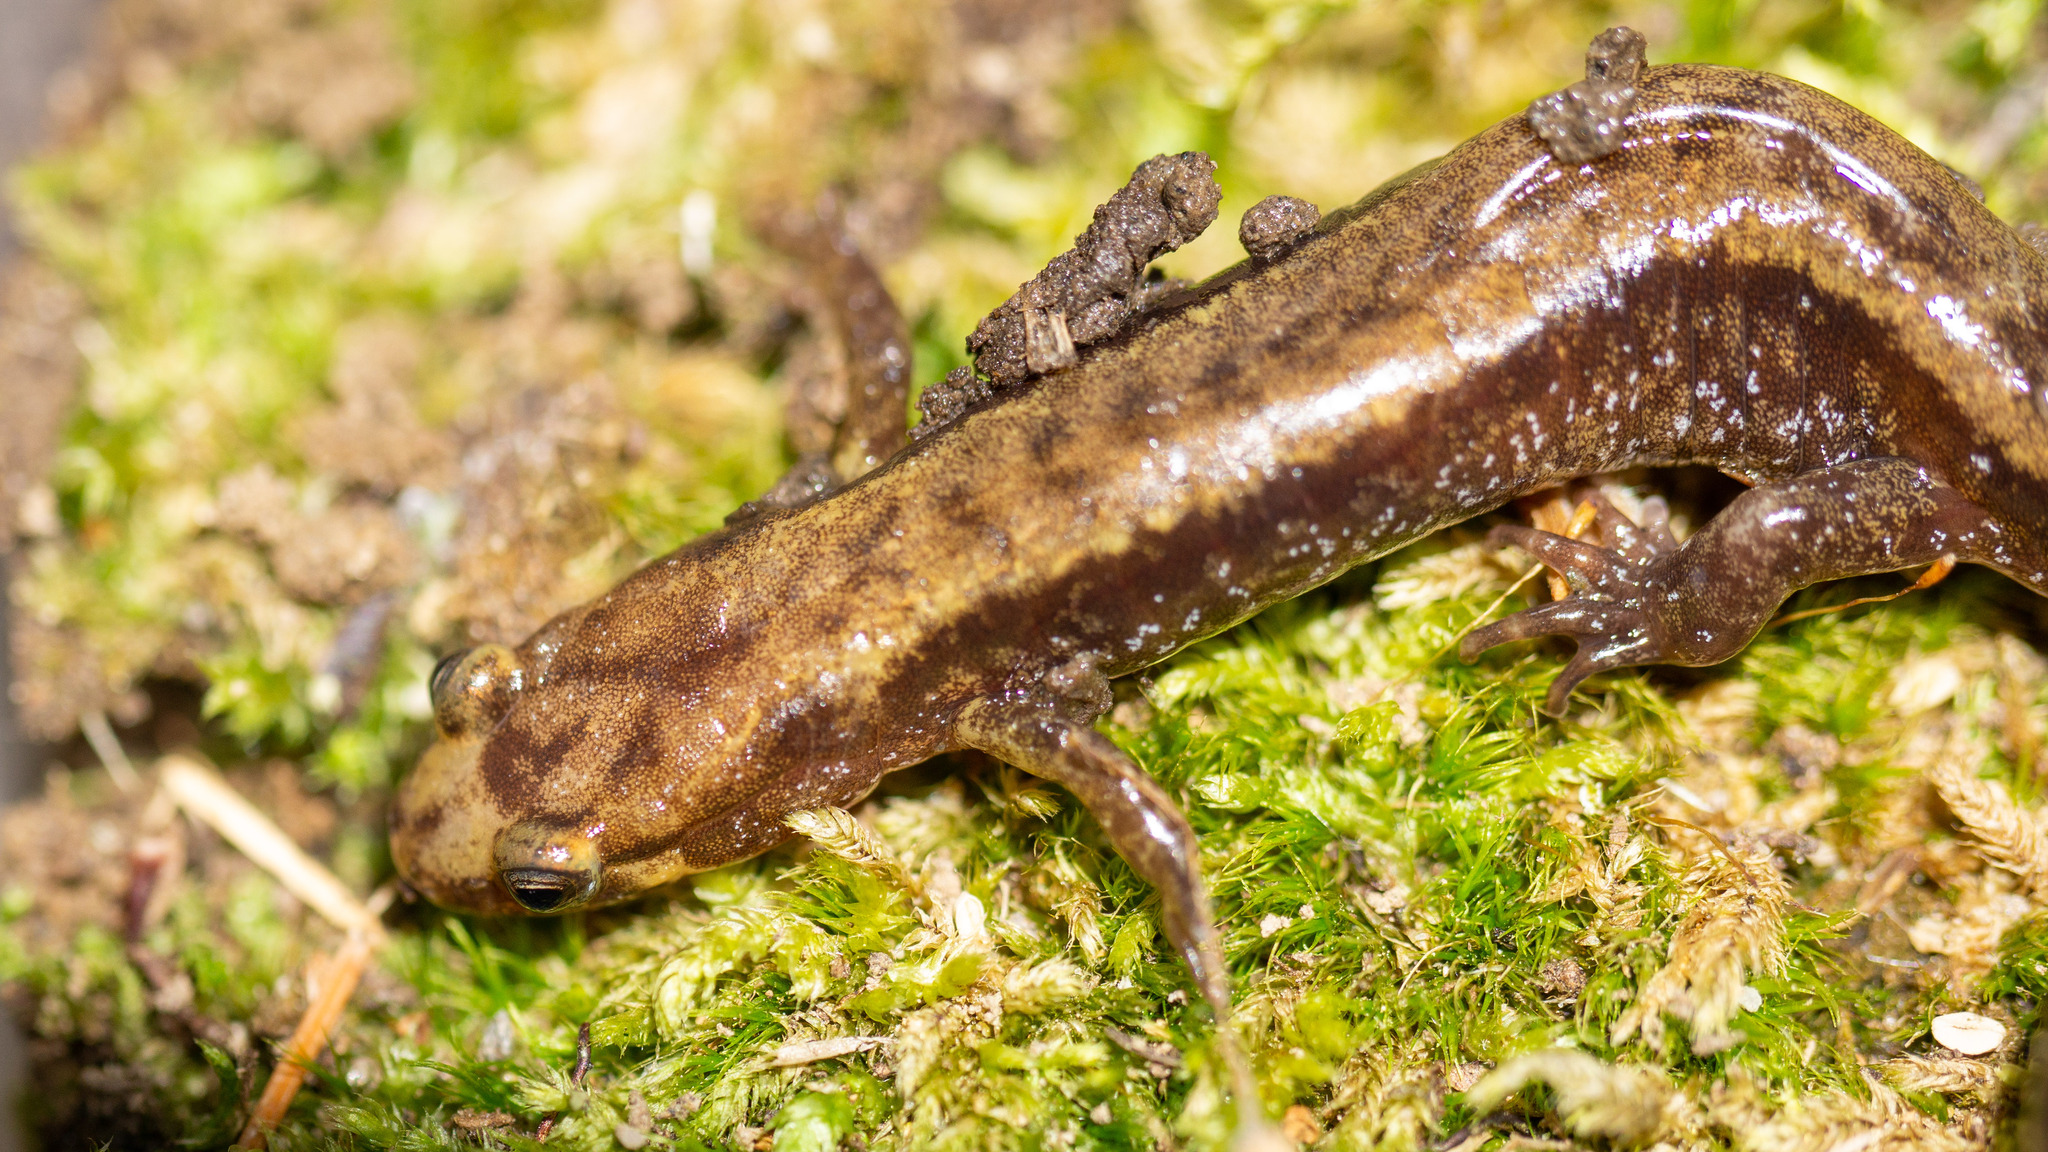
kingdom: Animalia
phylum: Chordata
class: Amphibia
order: Caudata
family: Plethodontidae
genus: Desmognathus
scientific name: Desmognathus ochrophaeus
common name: Allegheny mountain dusky salamander
